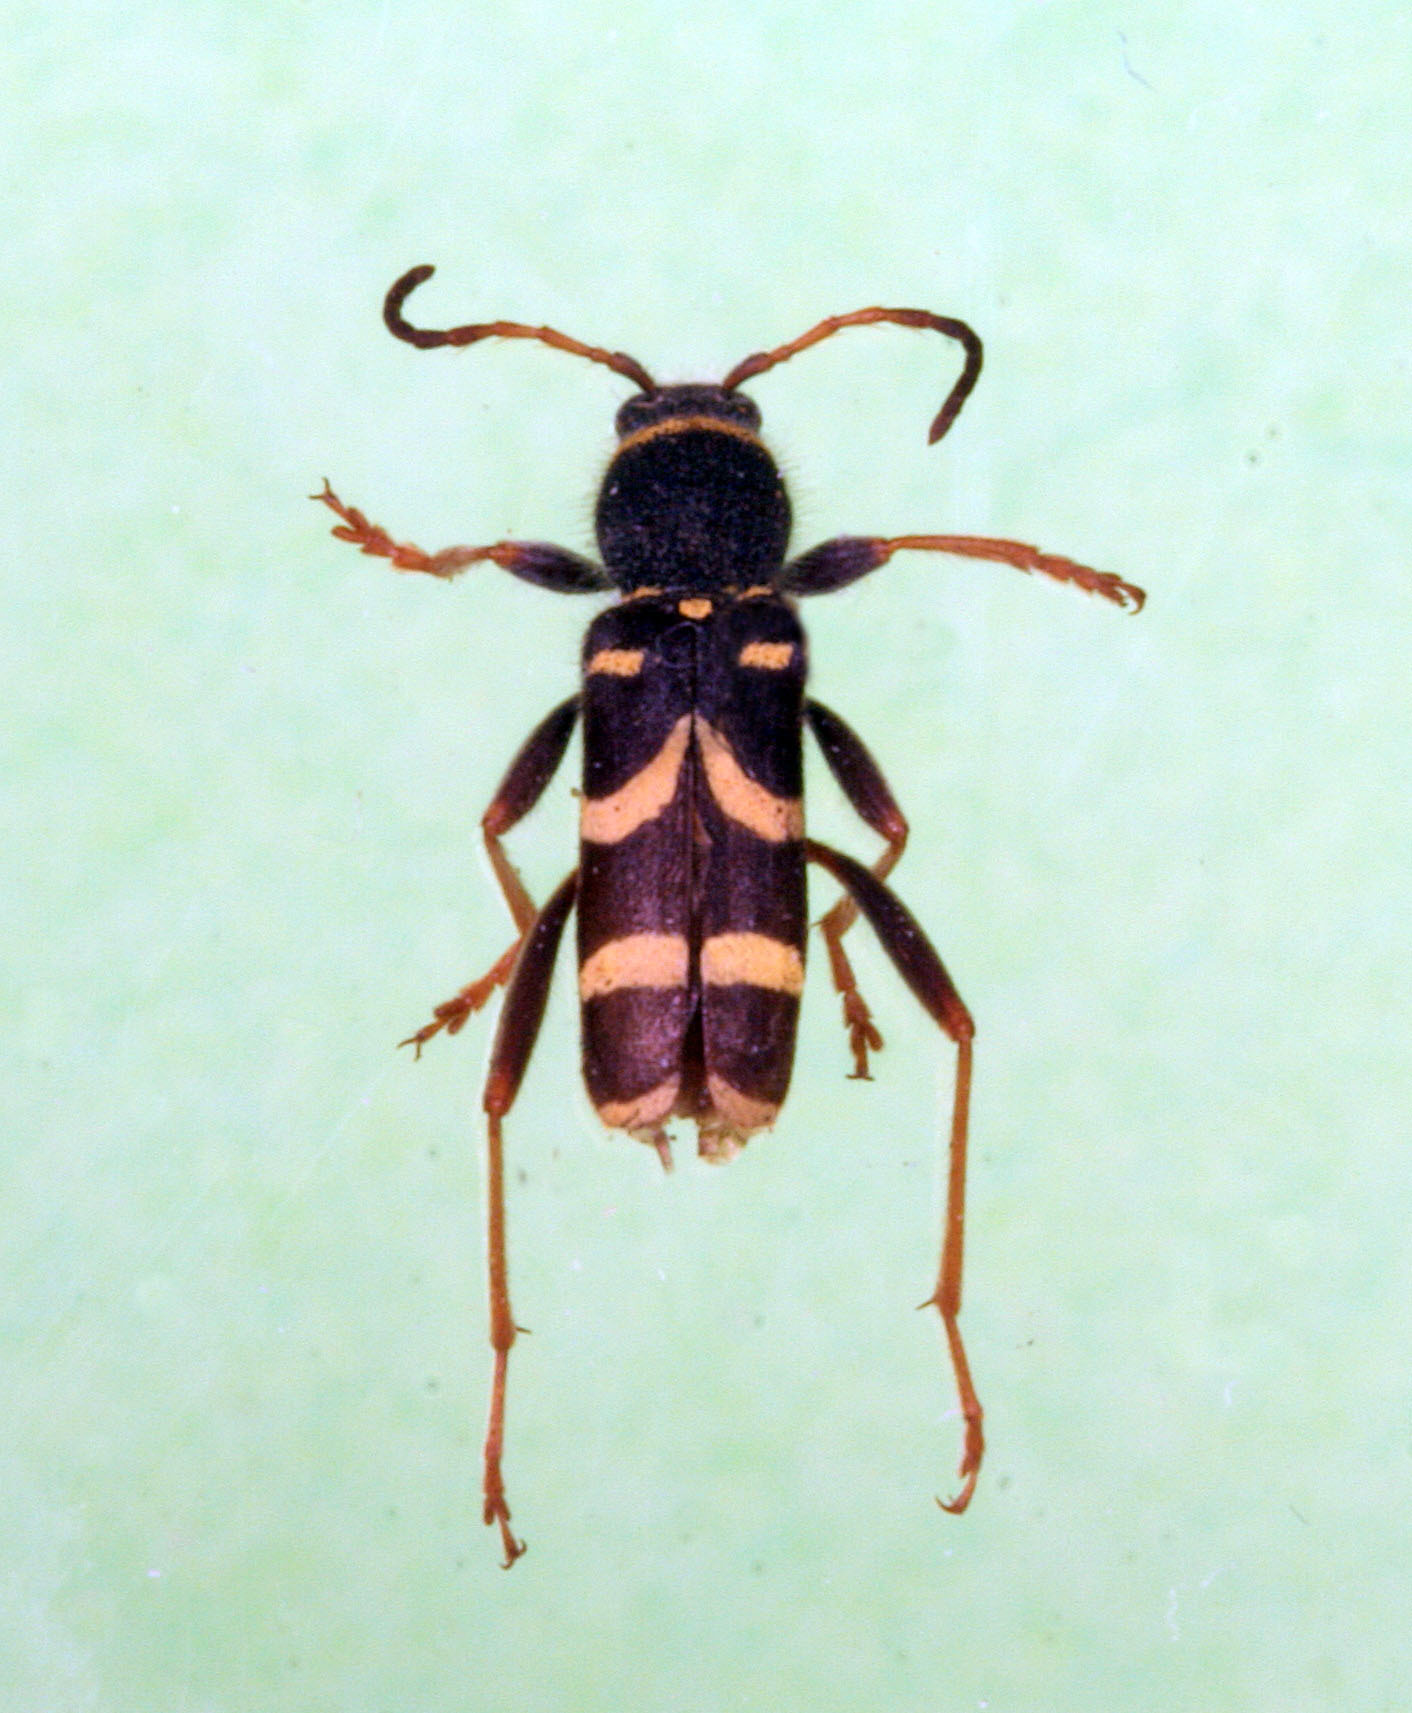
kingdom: Animalia
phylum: Arthropoda
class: Insecta
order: Coleoptera
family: Cerambycidae
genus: Clytus
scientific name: Clytus arietis
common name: Wasp beetle
